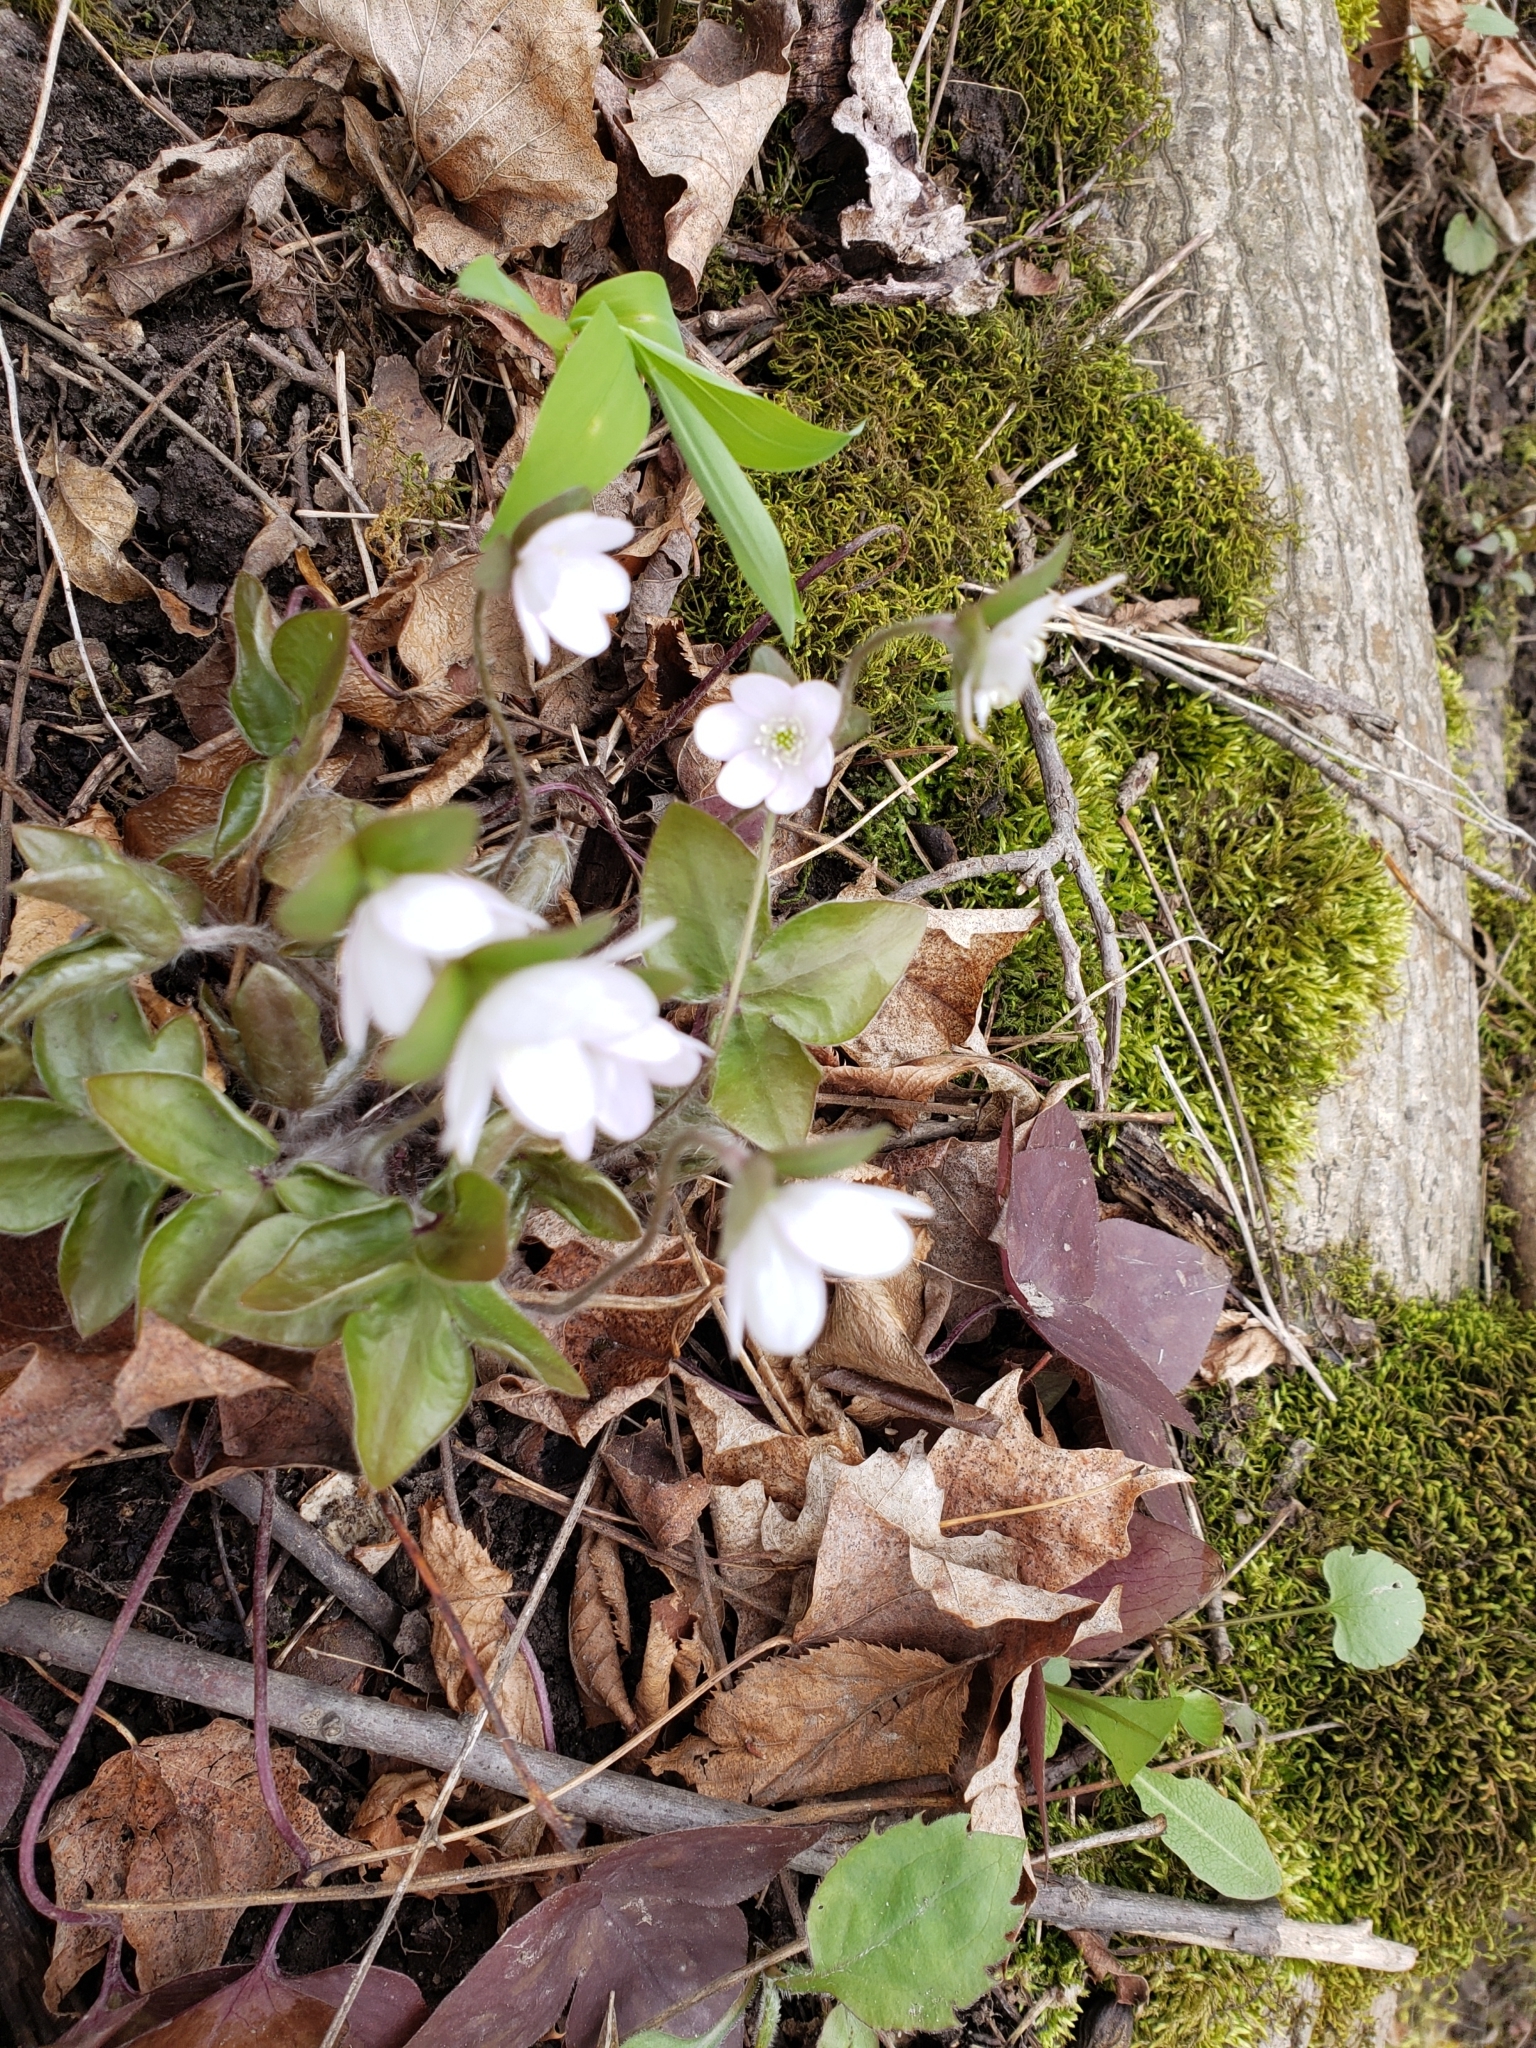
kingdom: Plantae
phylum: Tracheophyta
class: Magnoliopsida
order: Ranunculales
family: Ranunculaceae
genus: Hepatica
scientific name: Hepatica acutiloba
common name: Sharp-lobed hepatica
